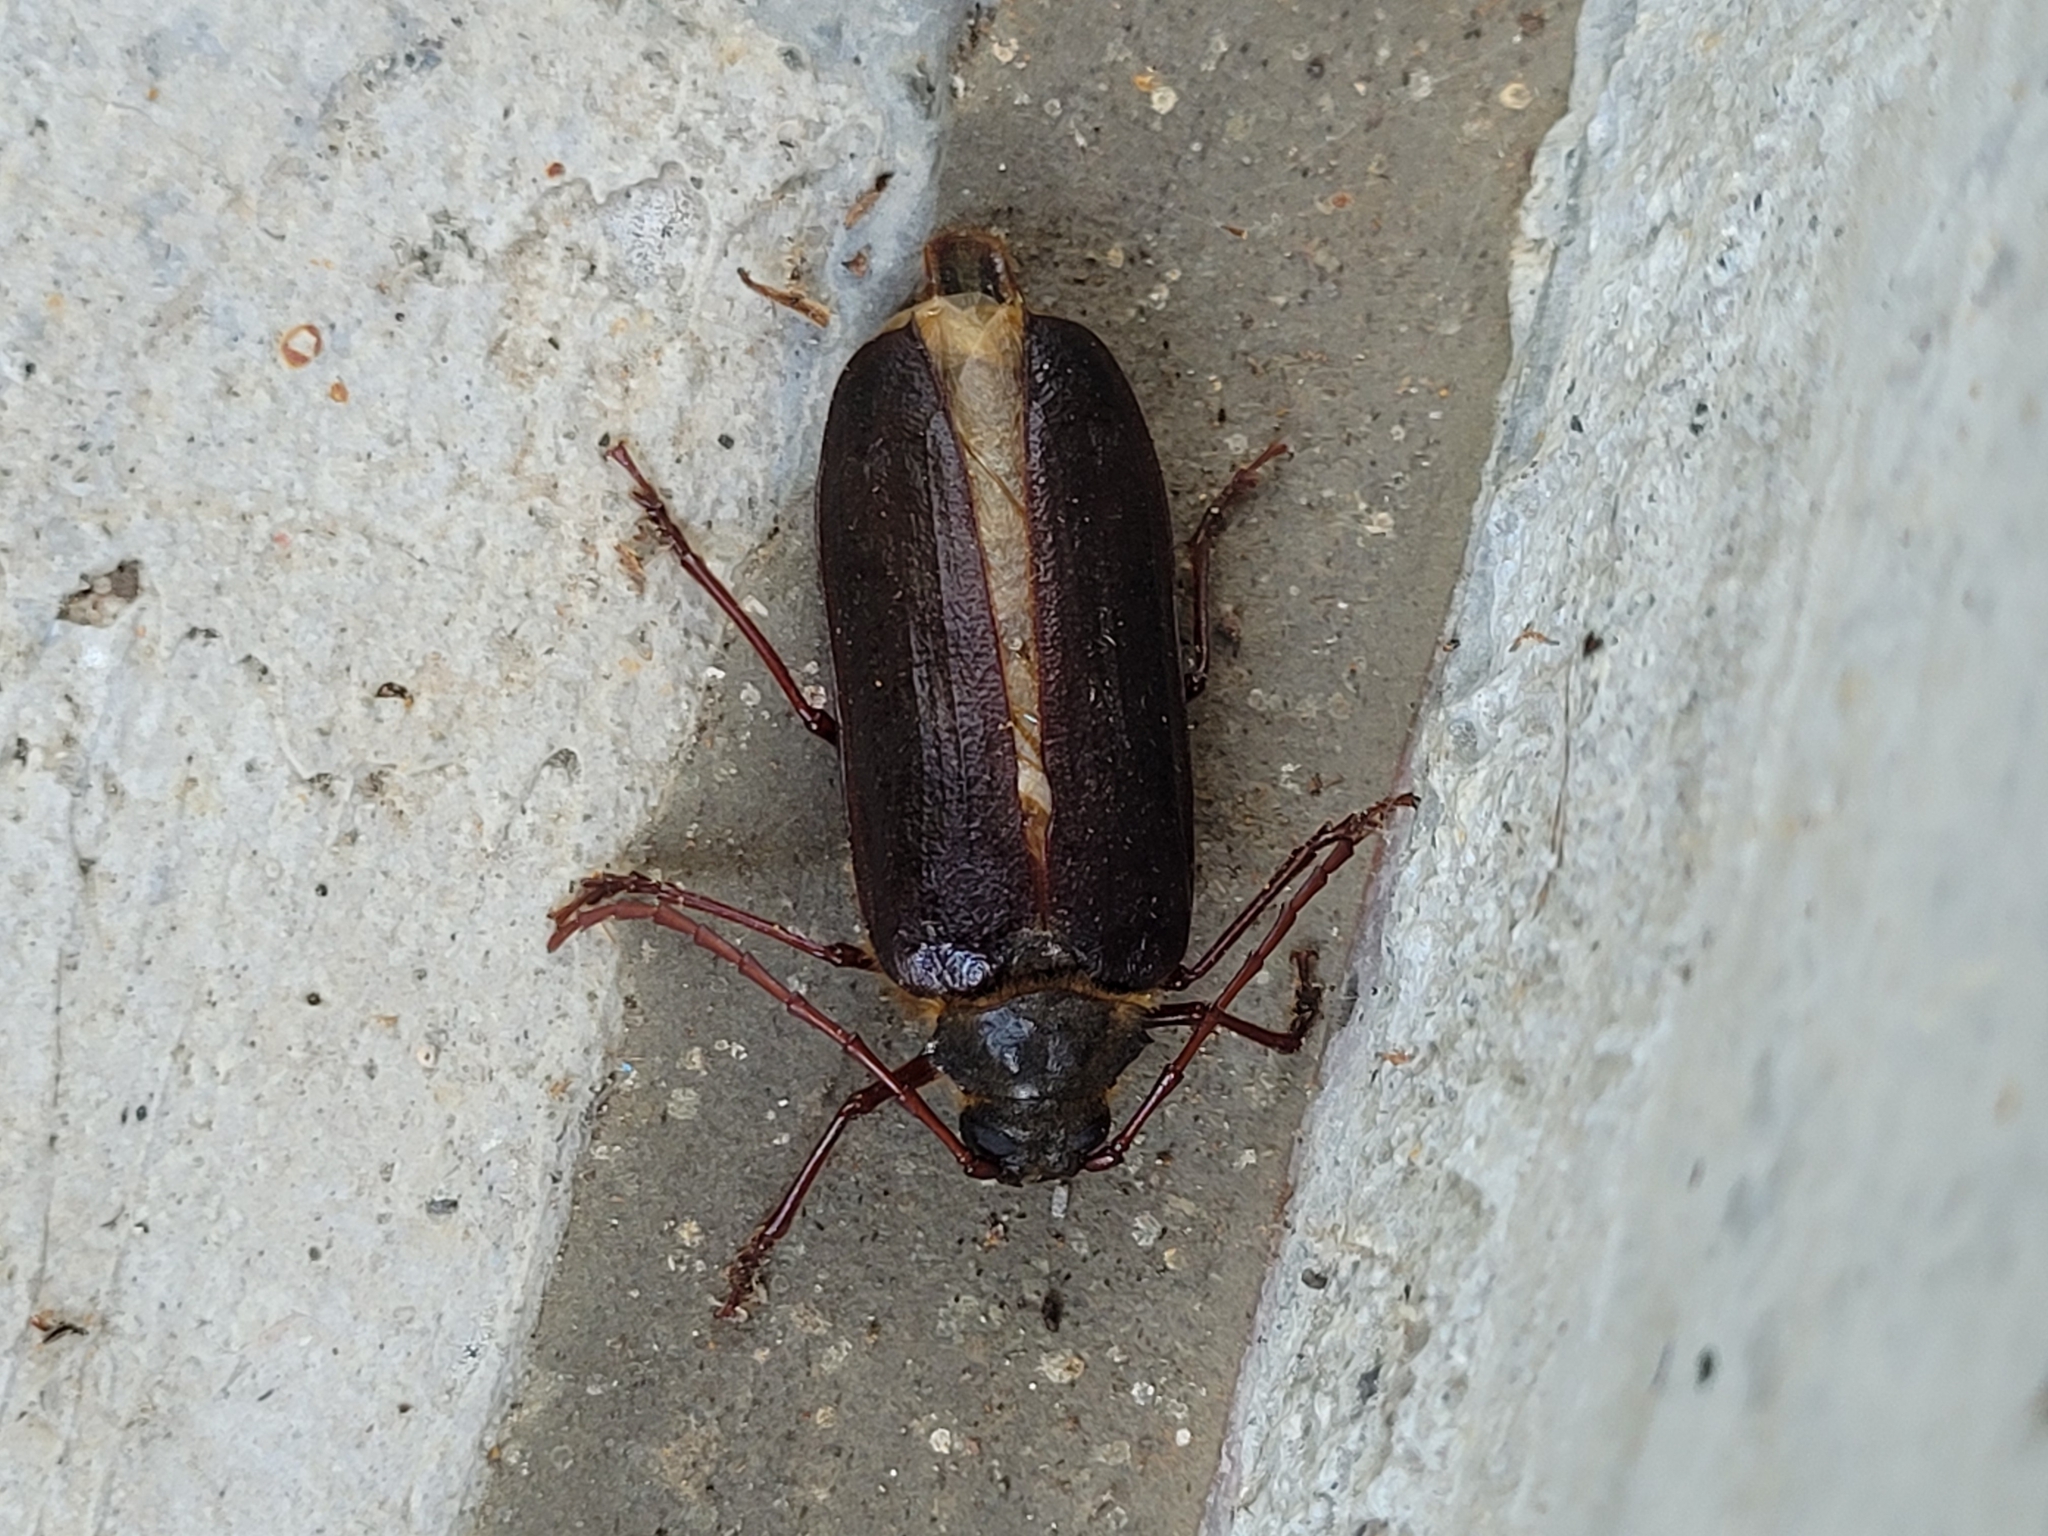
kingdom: Animalia
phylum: Arthropoda
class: Insecta
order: Coleoptera
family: Cerambycidae
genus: Tragosoma
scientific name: Tragosoma harrisii
